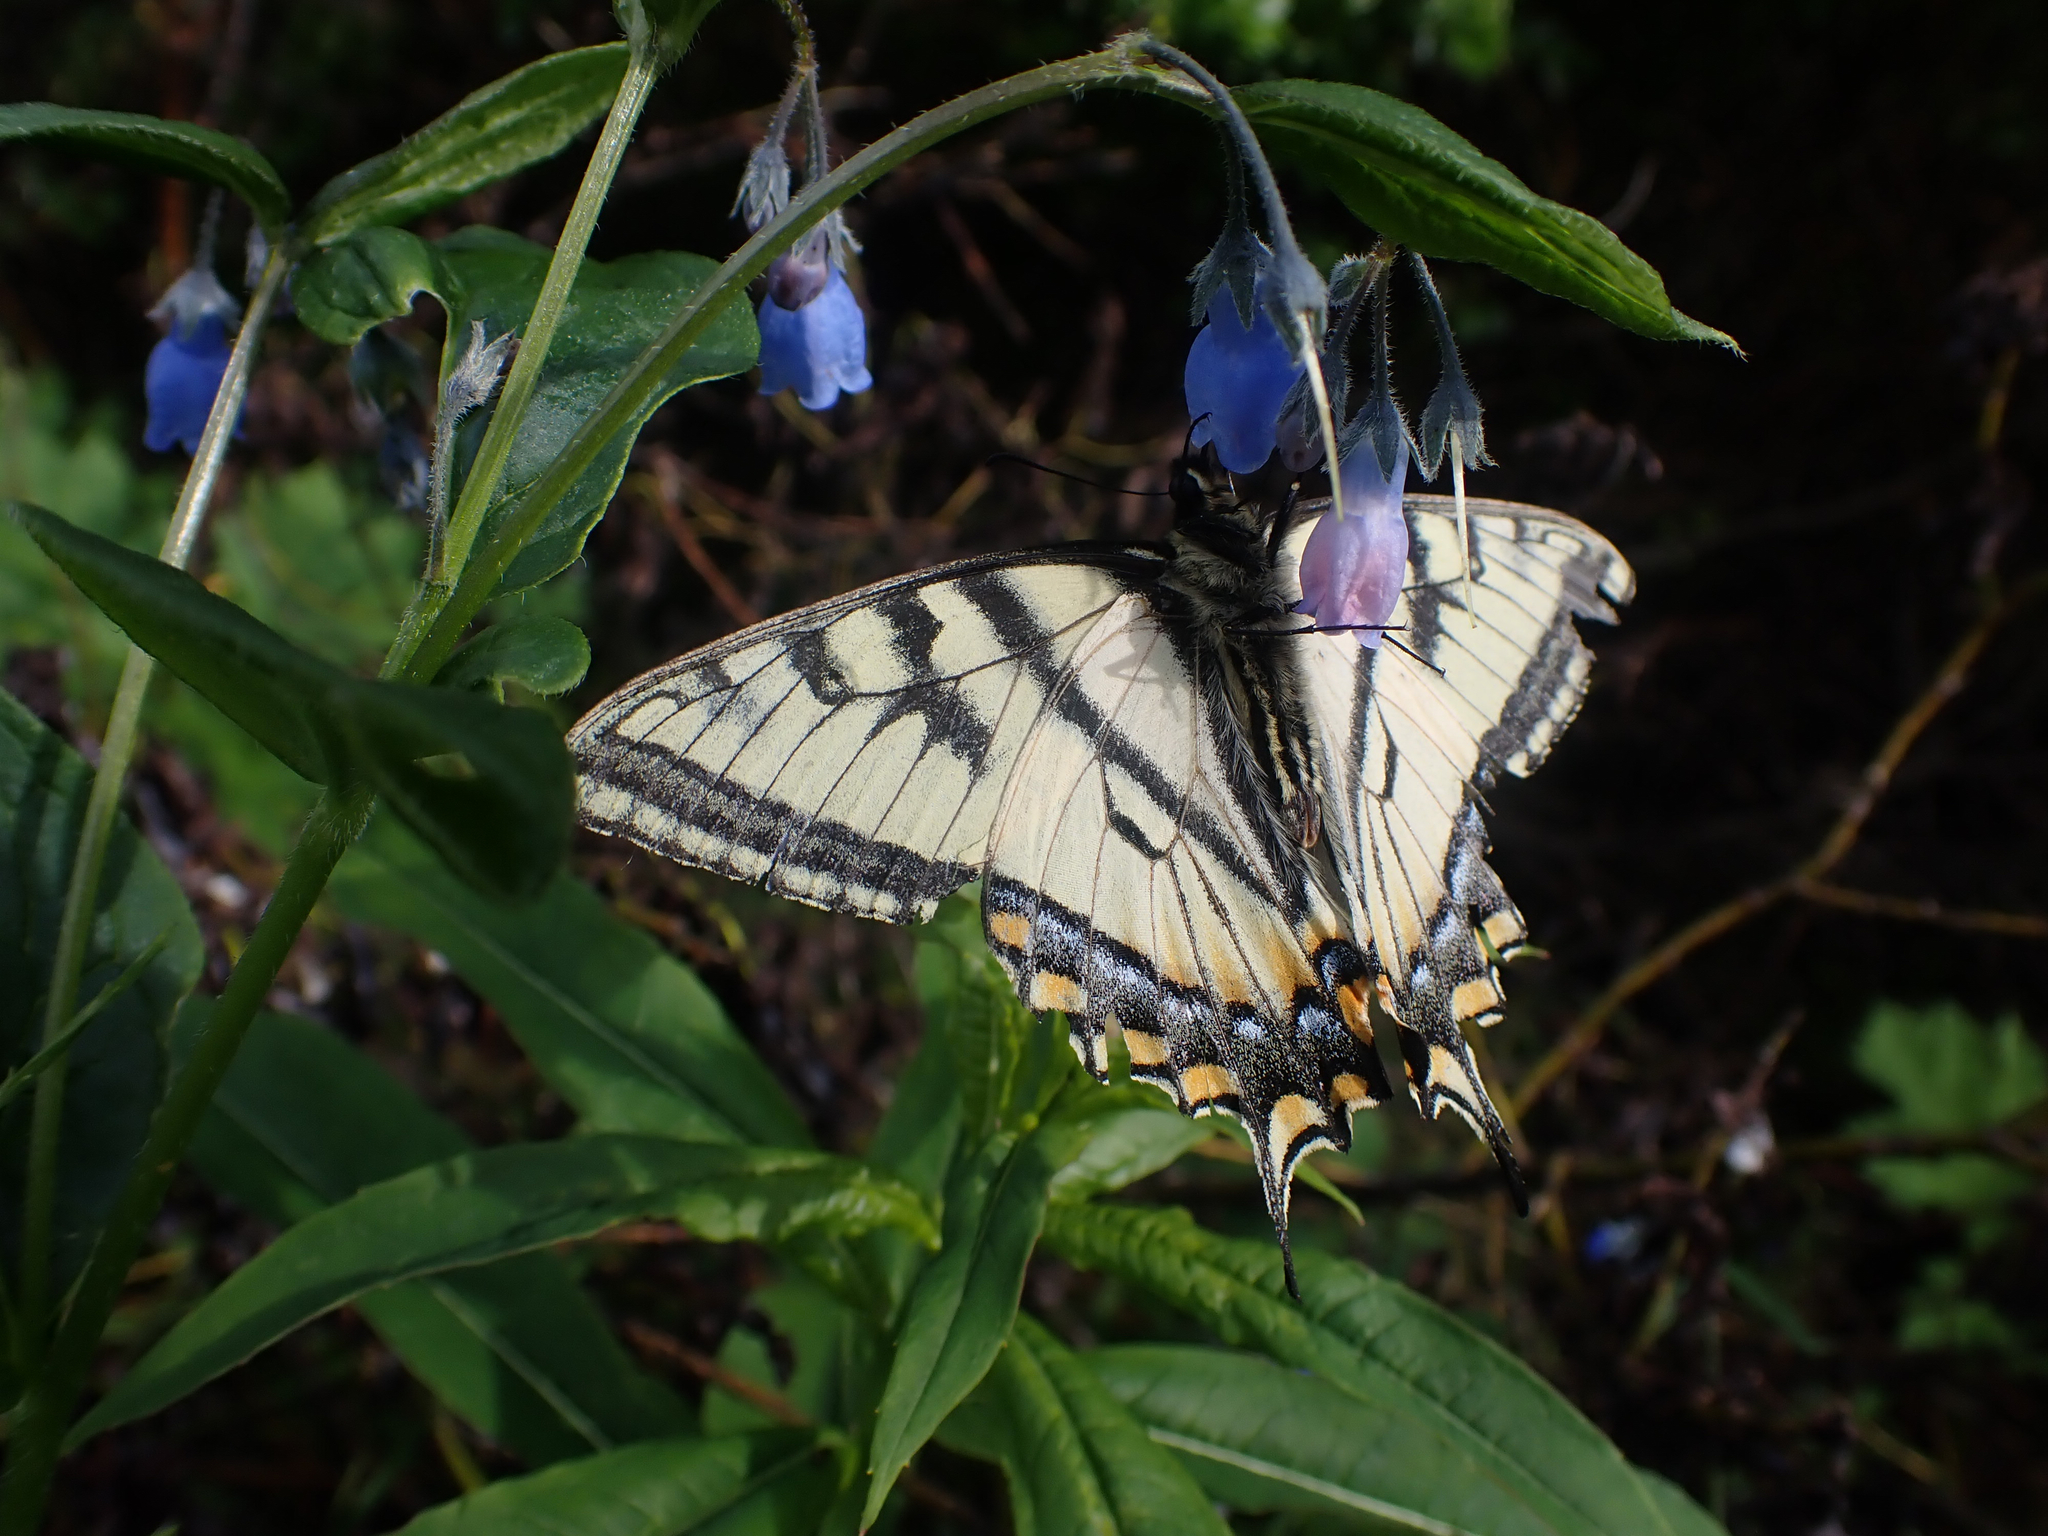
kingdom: Animalia
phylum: Arthropoda
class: Insecta
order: Lepidoptera
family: Papilionidae
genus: Papilio
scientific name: Papilio canadensis
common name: Canadian tiger swallowtail
